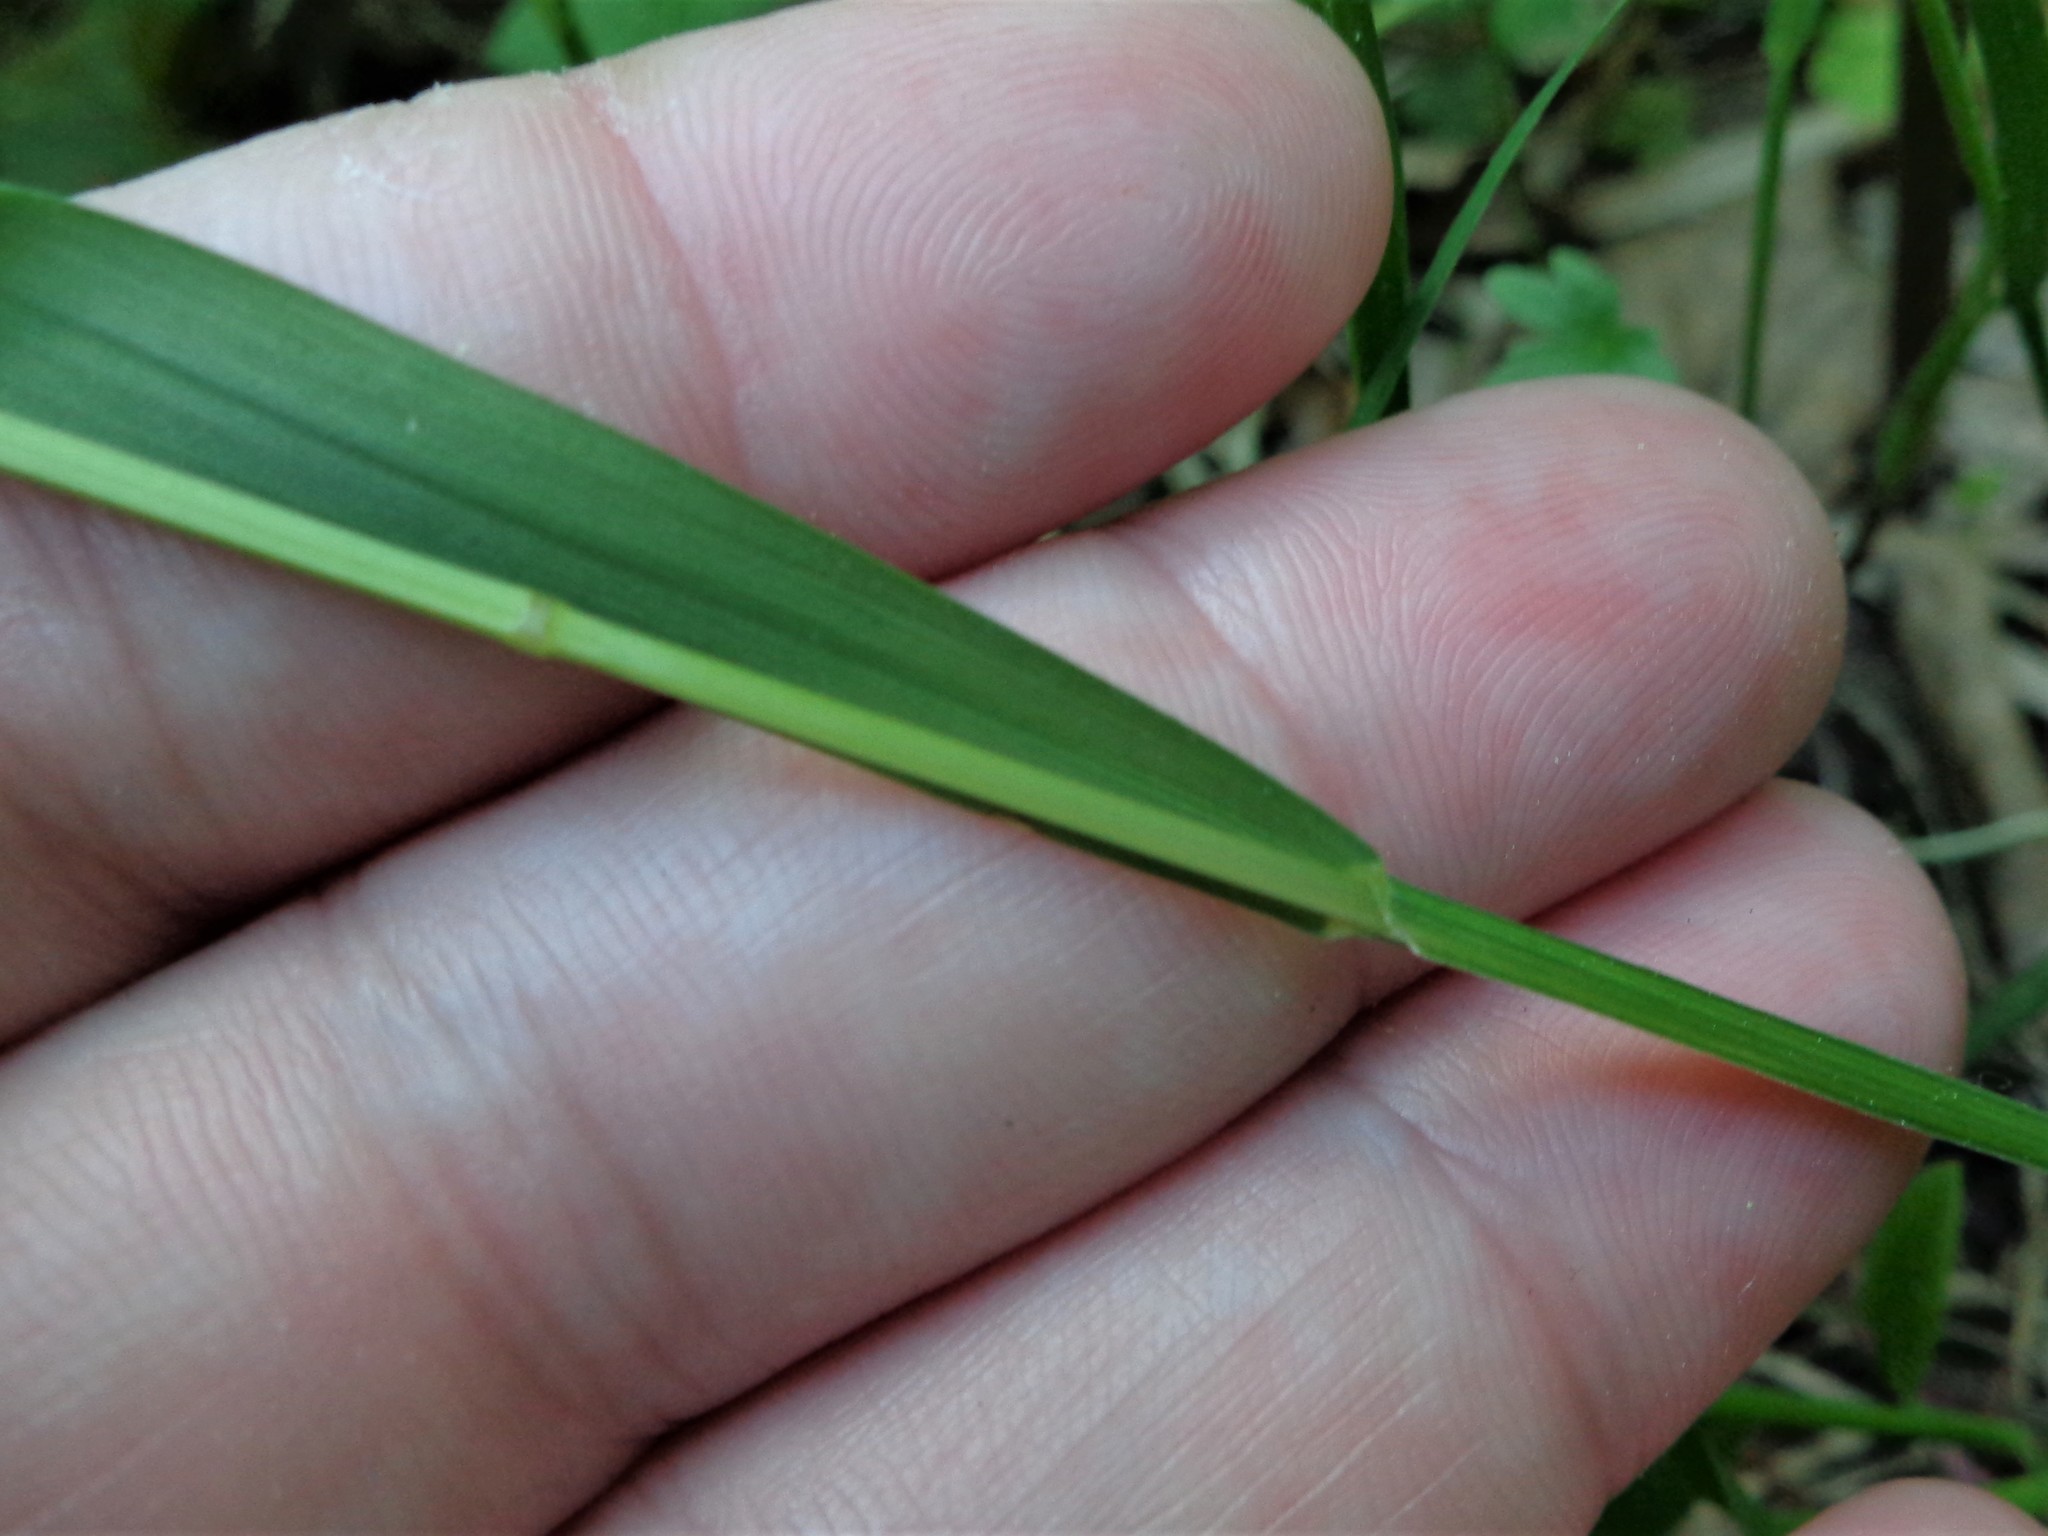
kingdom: Plantae
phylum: Tracheophyta
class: Liliopsida
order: Poales
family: Poaceae
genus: Melica
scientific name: Melica nutans
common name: Mountain melick
